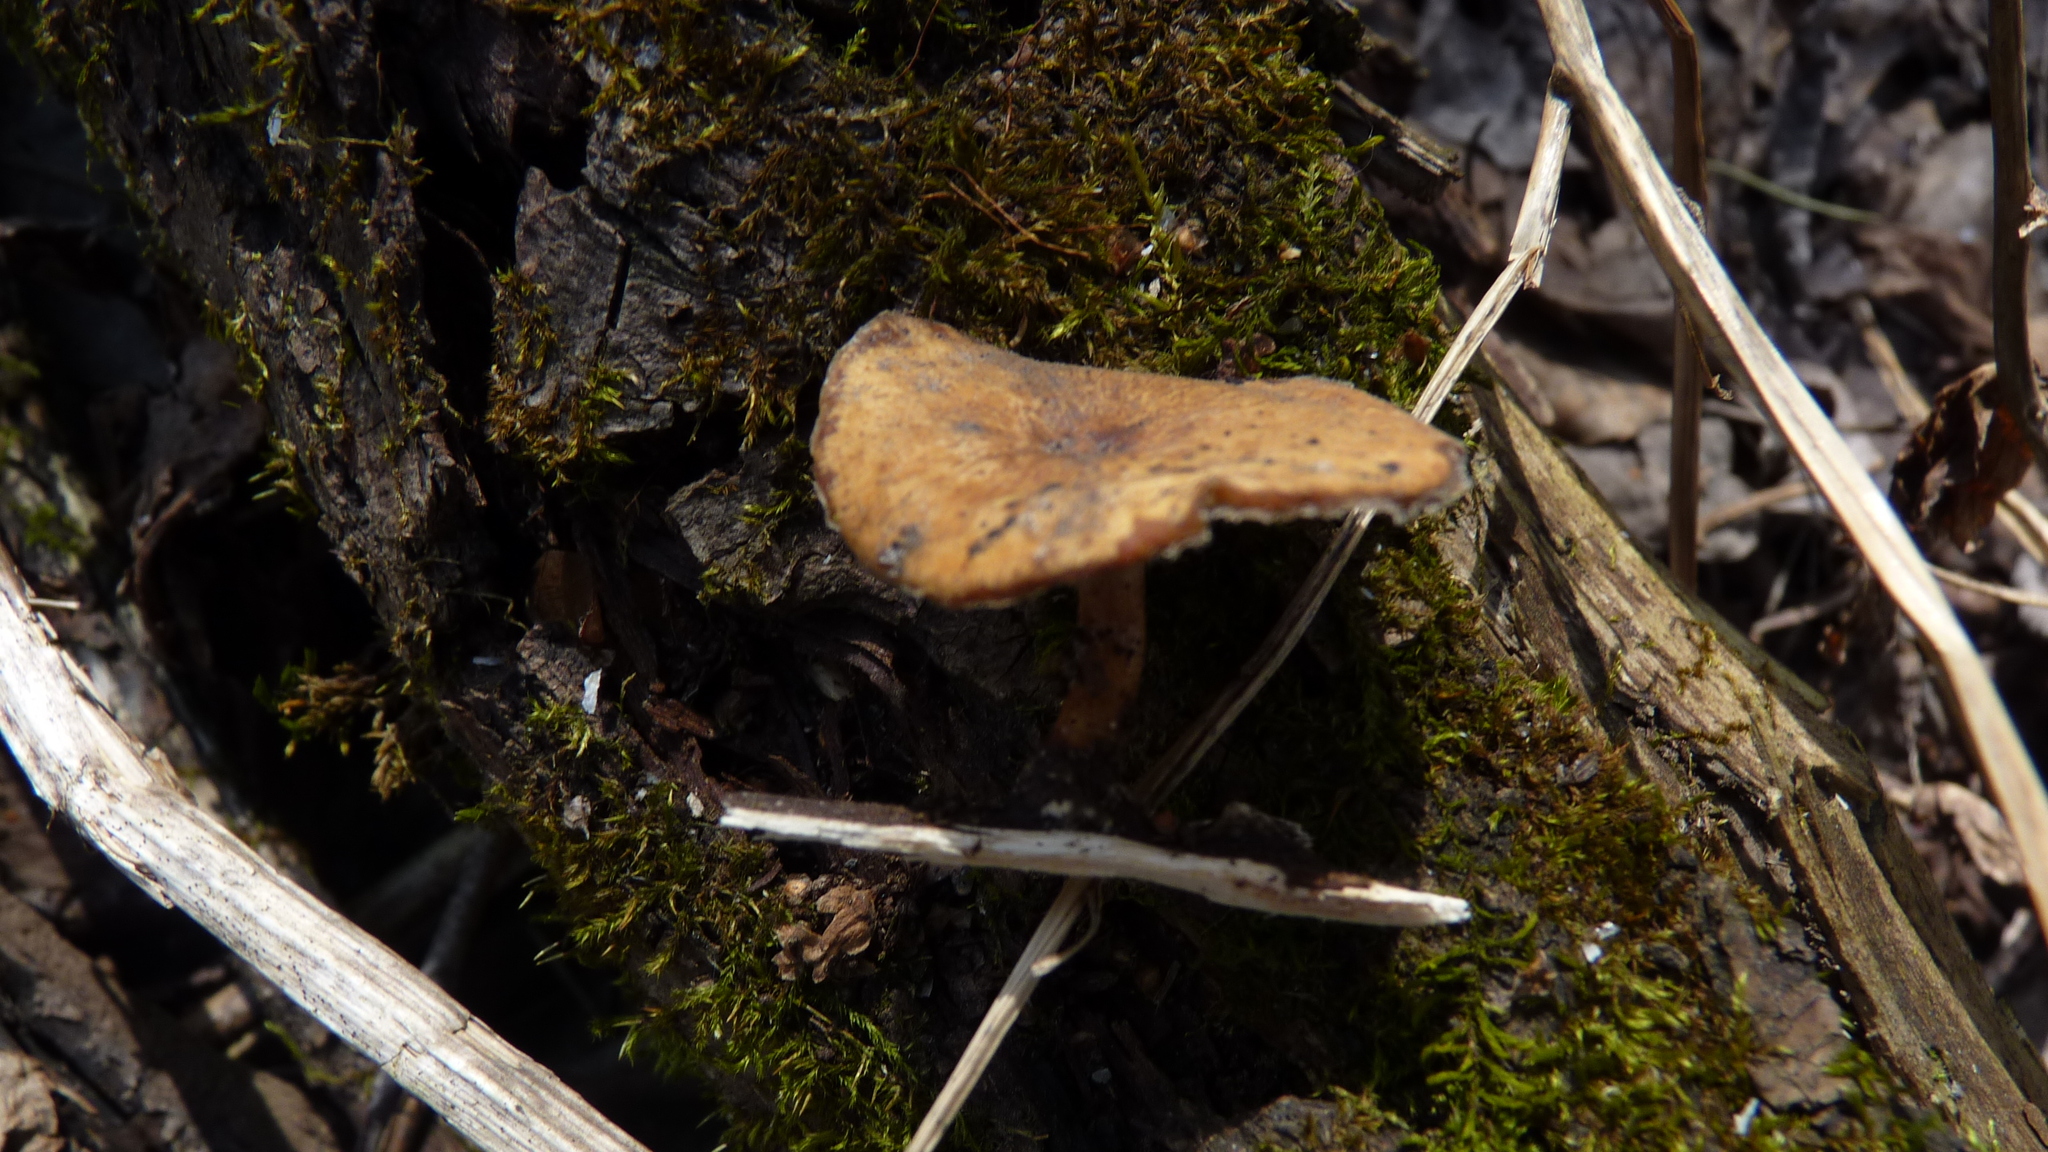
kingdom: Fungi
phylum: Basidiomycota
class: Agaricomycetes
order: Polyporales
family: Polyporaceae
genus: Lentinus
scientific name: Lentinus arcularius
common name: Spring polypore
